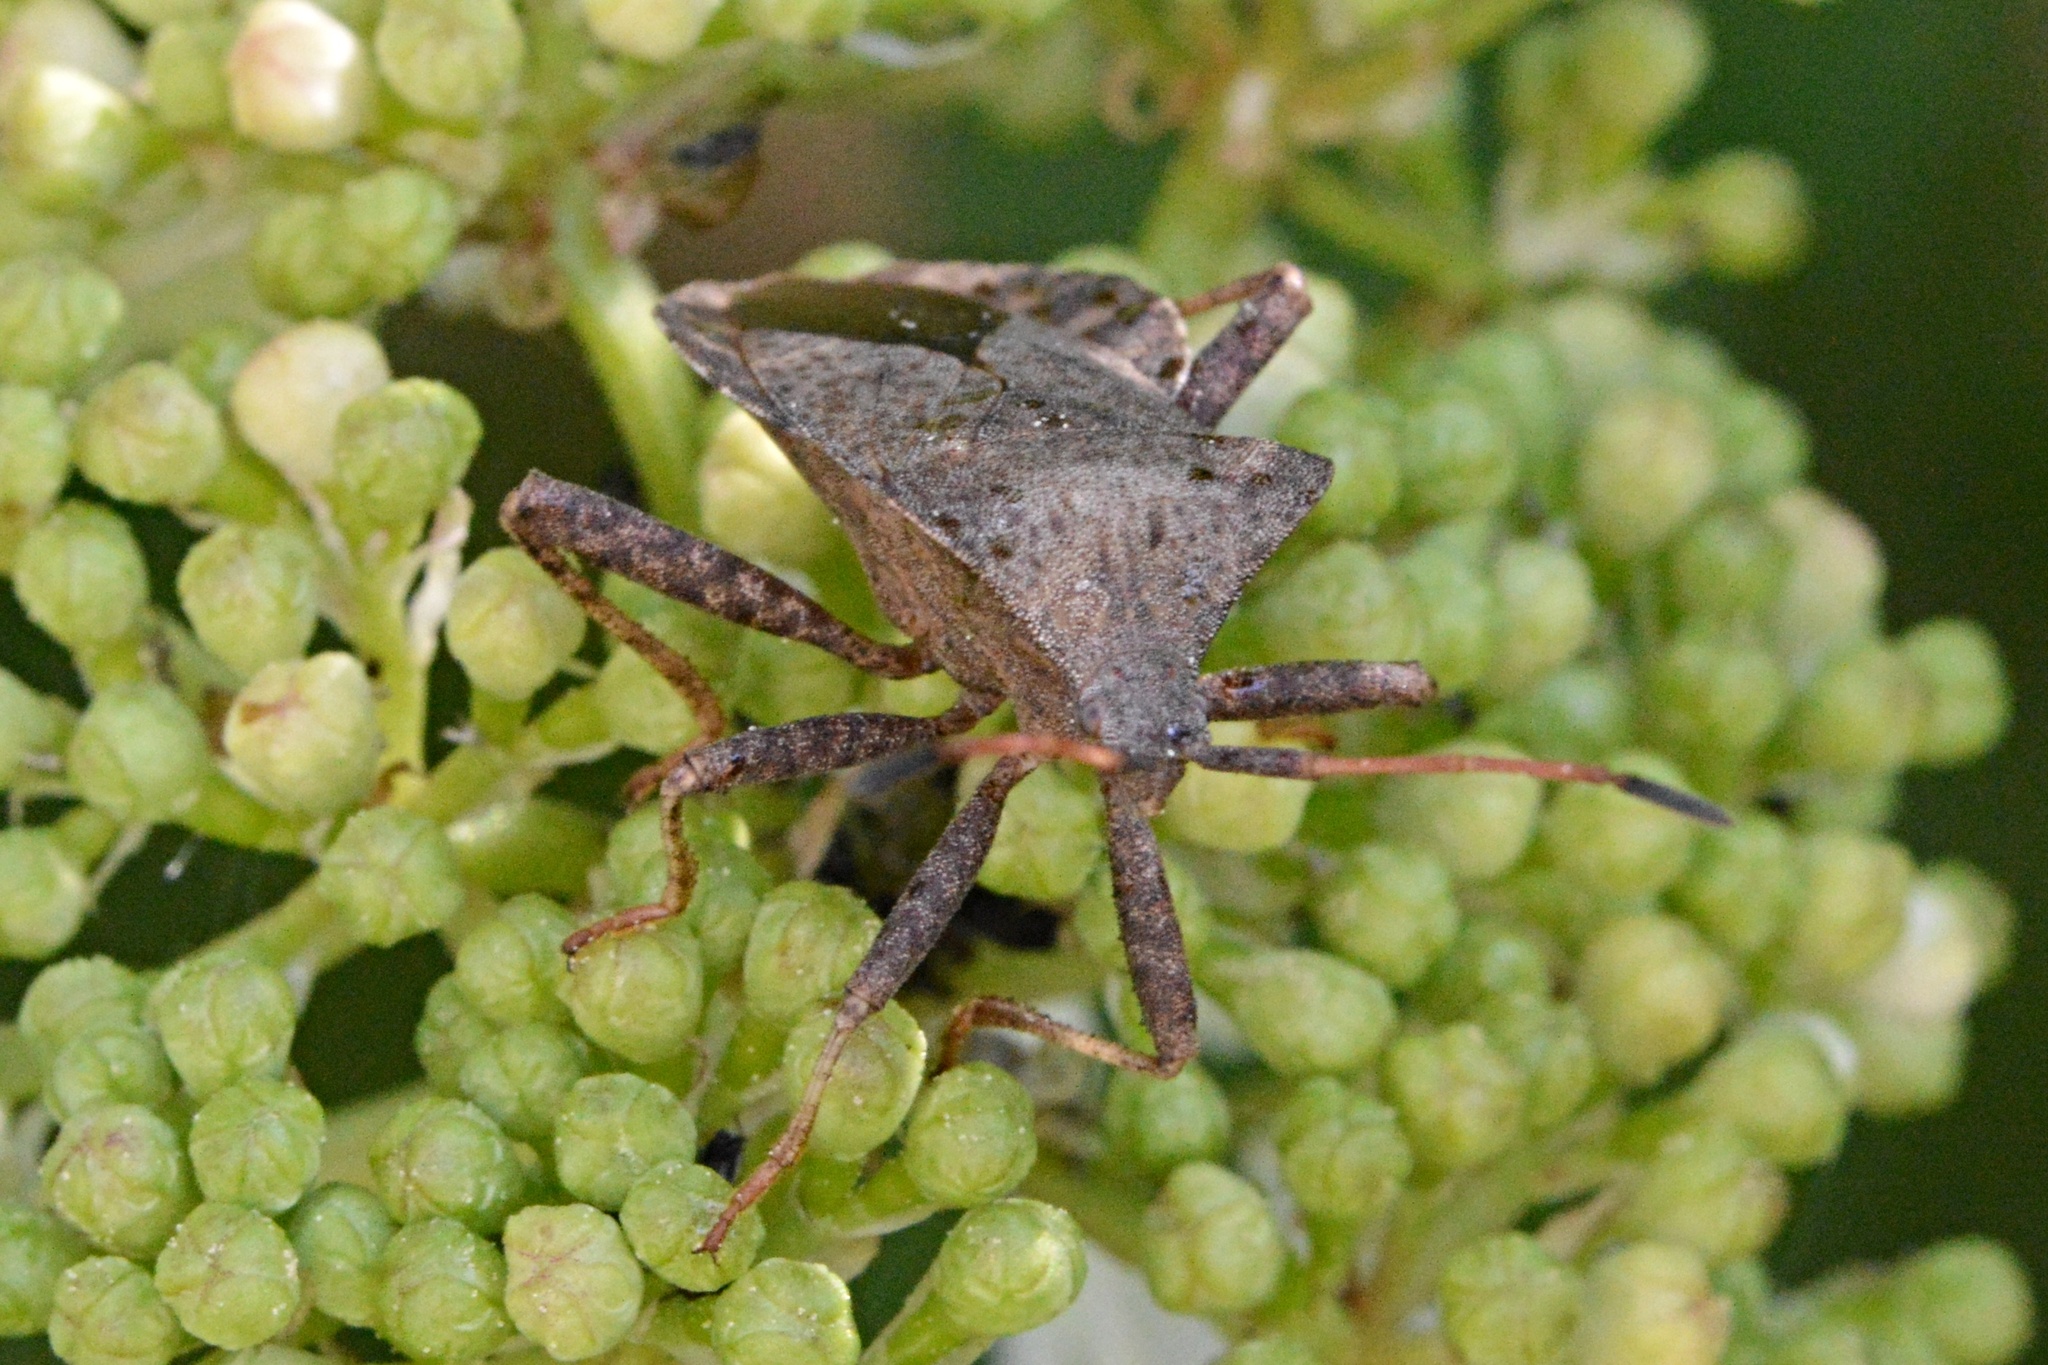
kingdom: Animalia
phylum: Arthropoda
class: Insecta
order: Hemiptera
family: Coreidae
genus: Coreus
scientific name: Coreus marginatus
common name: Dock bug
